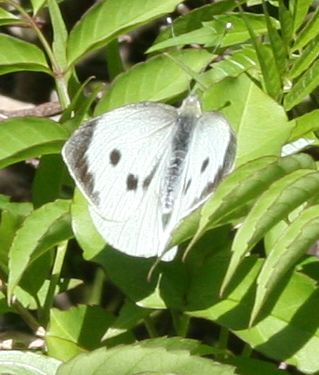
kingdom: Animalia
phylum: Arthropoda
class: Insecta
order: Lepidoptera
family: Pieridae
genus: Pieris
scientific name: Pieris brassicae
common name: Large white
